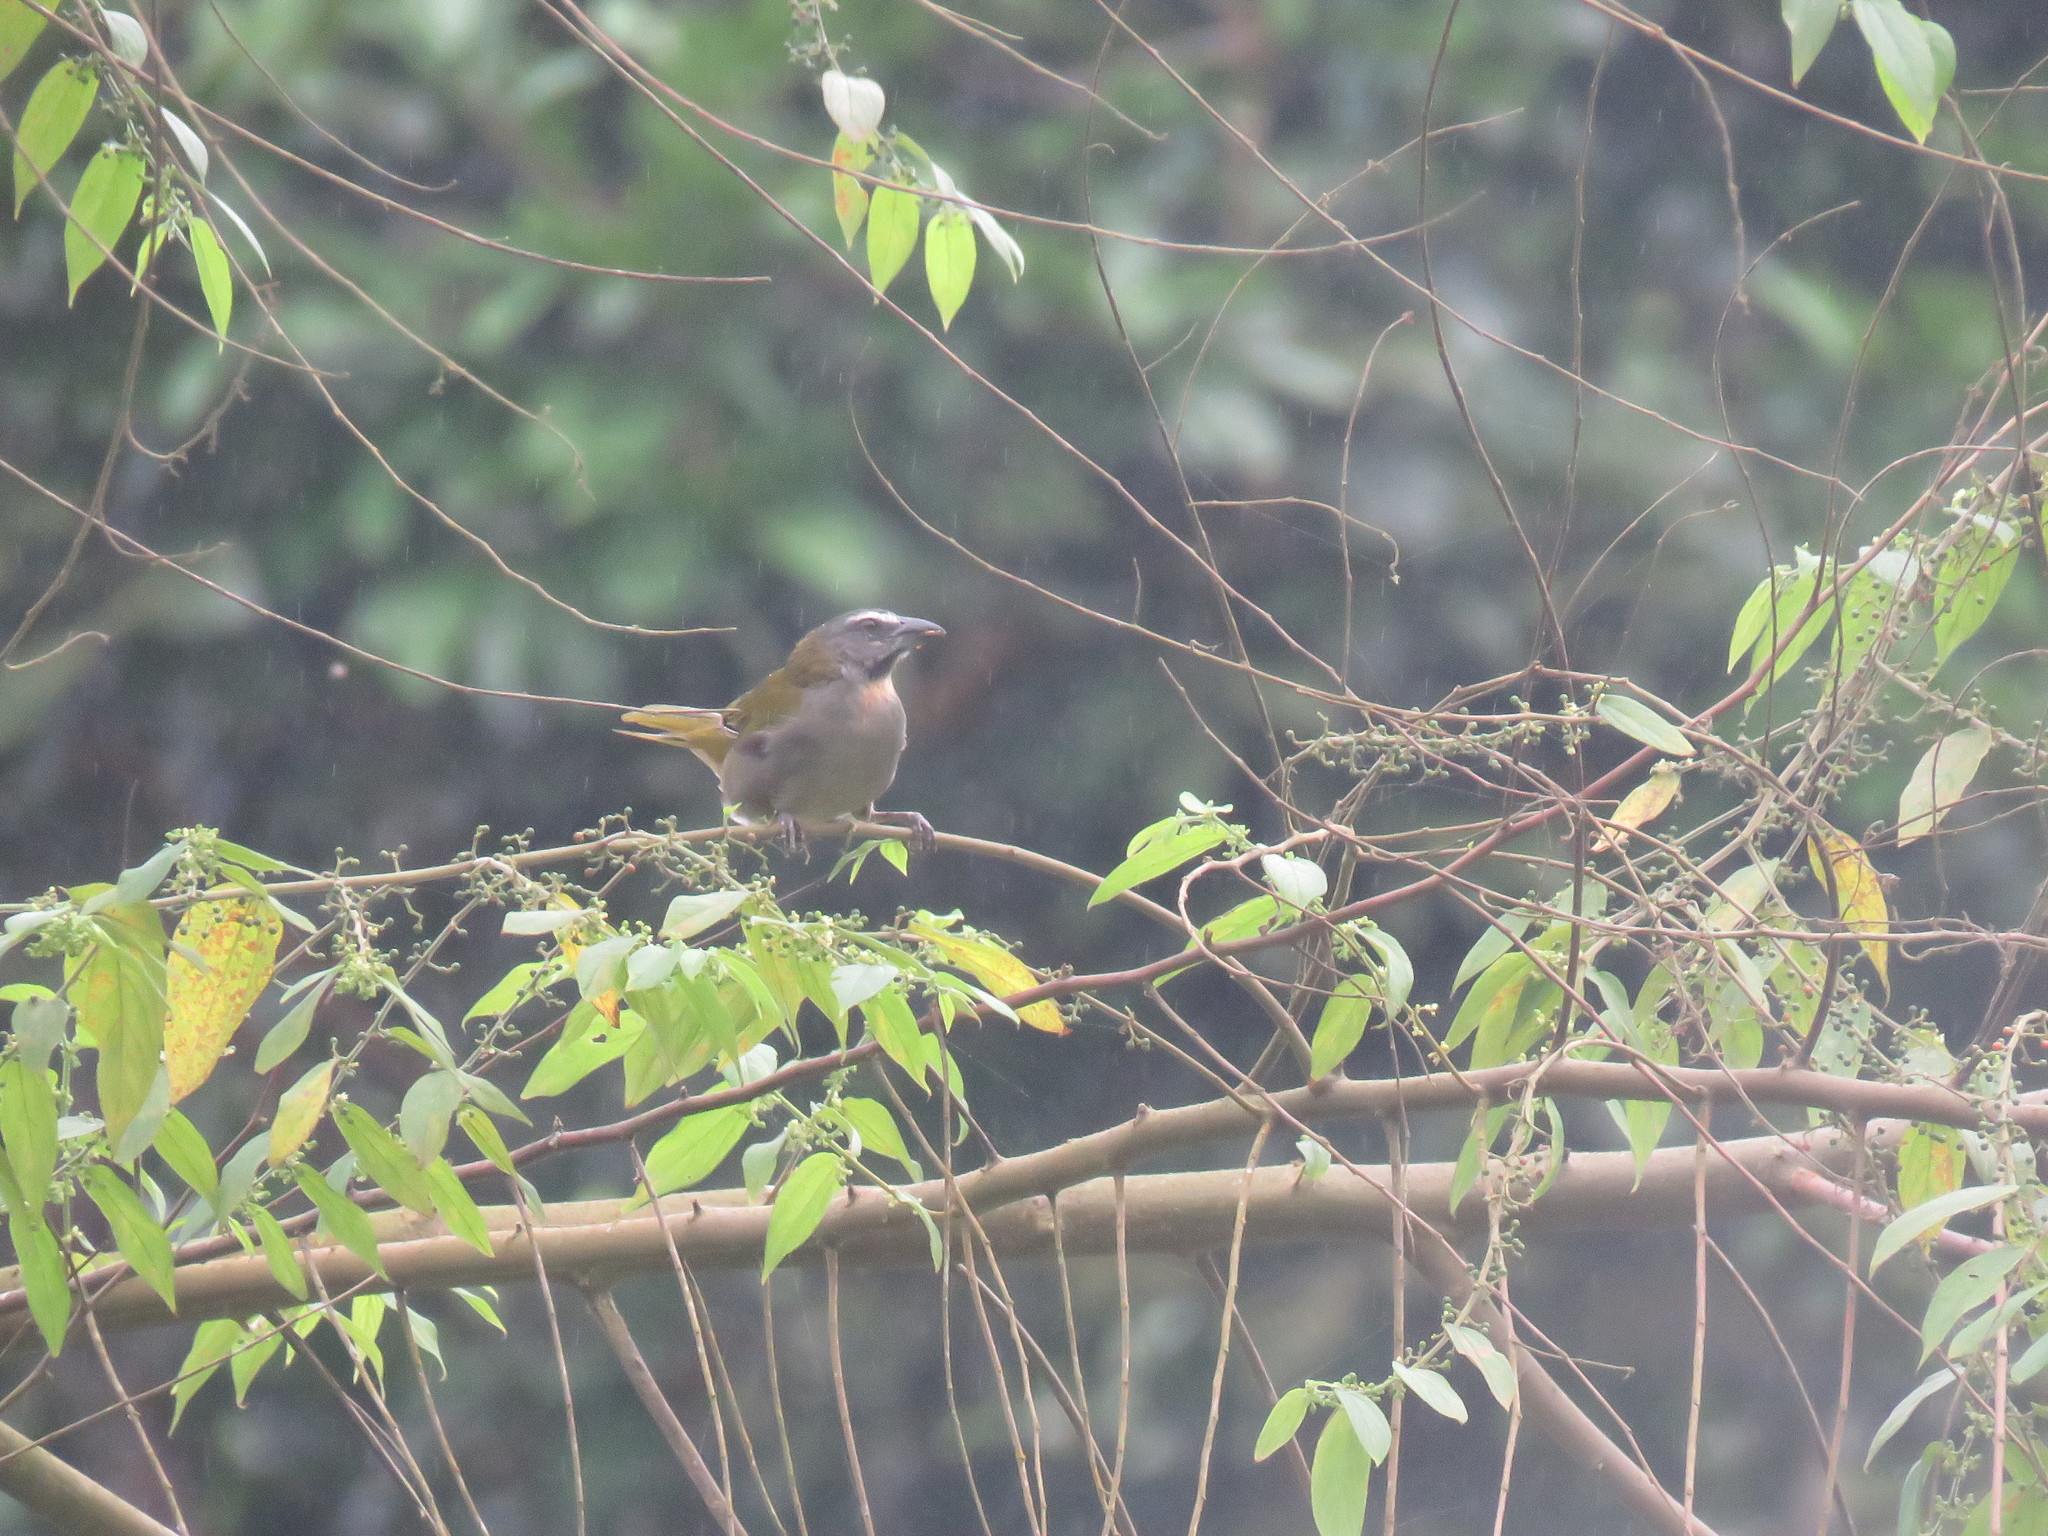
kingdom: Animalia
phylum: Chordata
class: Aves
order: Passeriformes
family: Thraupidae
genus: Saltator
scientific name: Saltator maximus
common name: Buff-throated saltator
